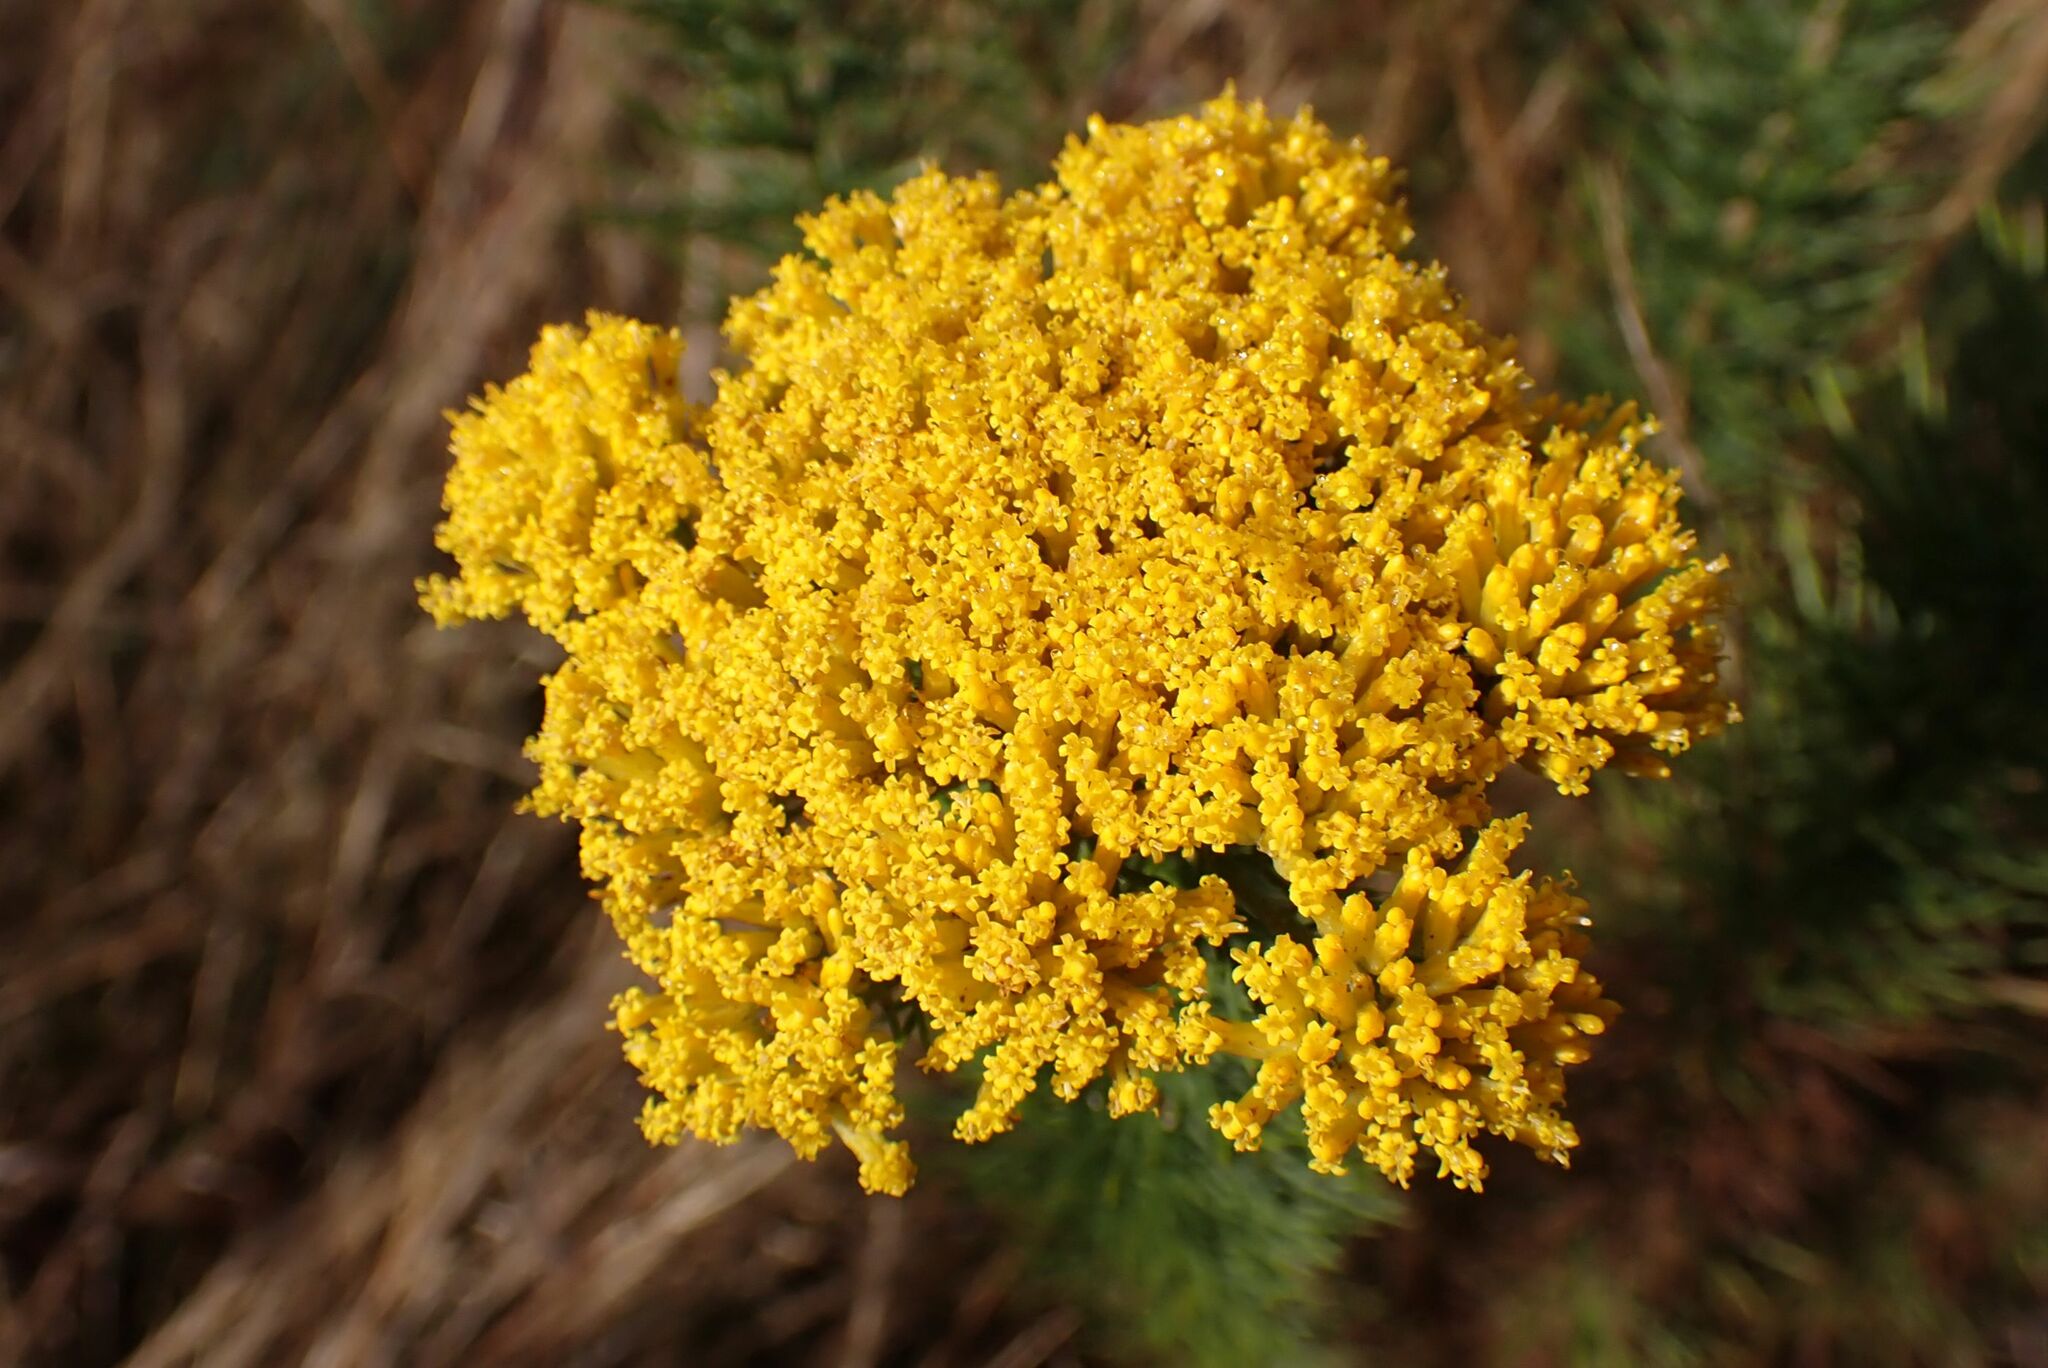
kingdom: Plantae
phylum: Tracheophyta
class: Magnoliopsida
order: Asterales
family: Asteraceae
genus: Phymaspermum
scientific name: Phymaspermum acerosum
